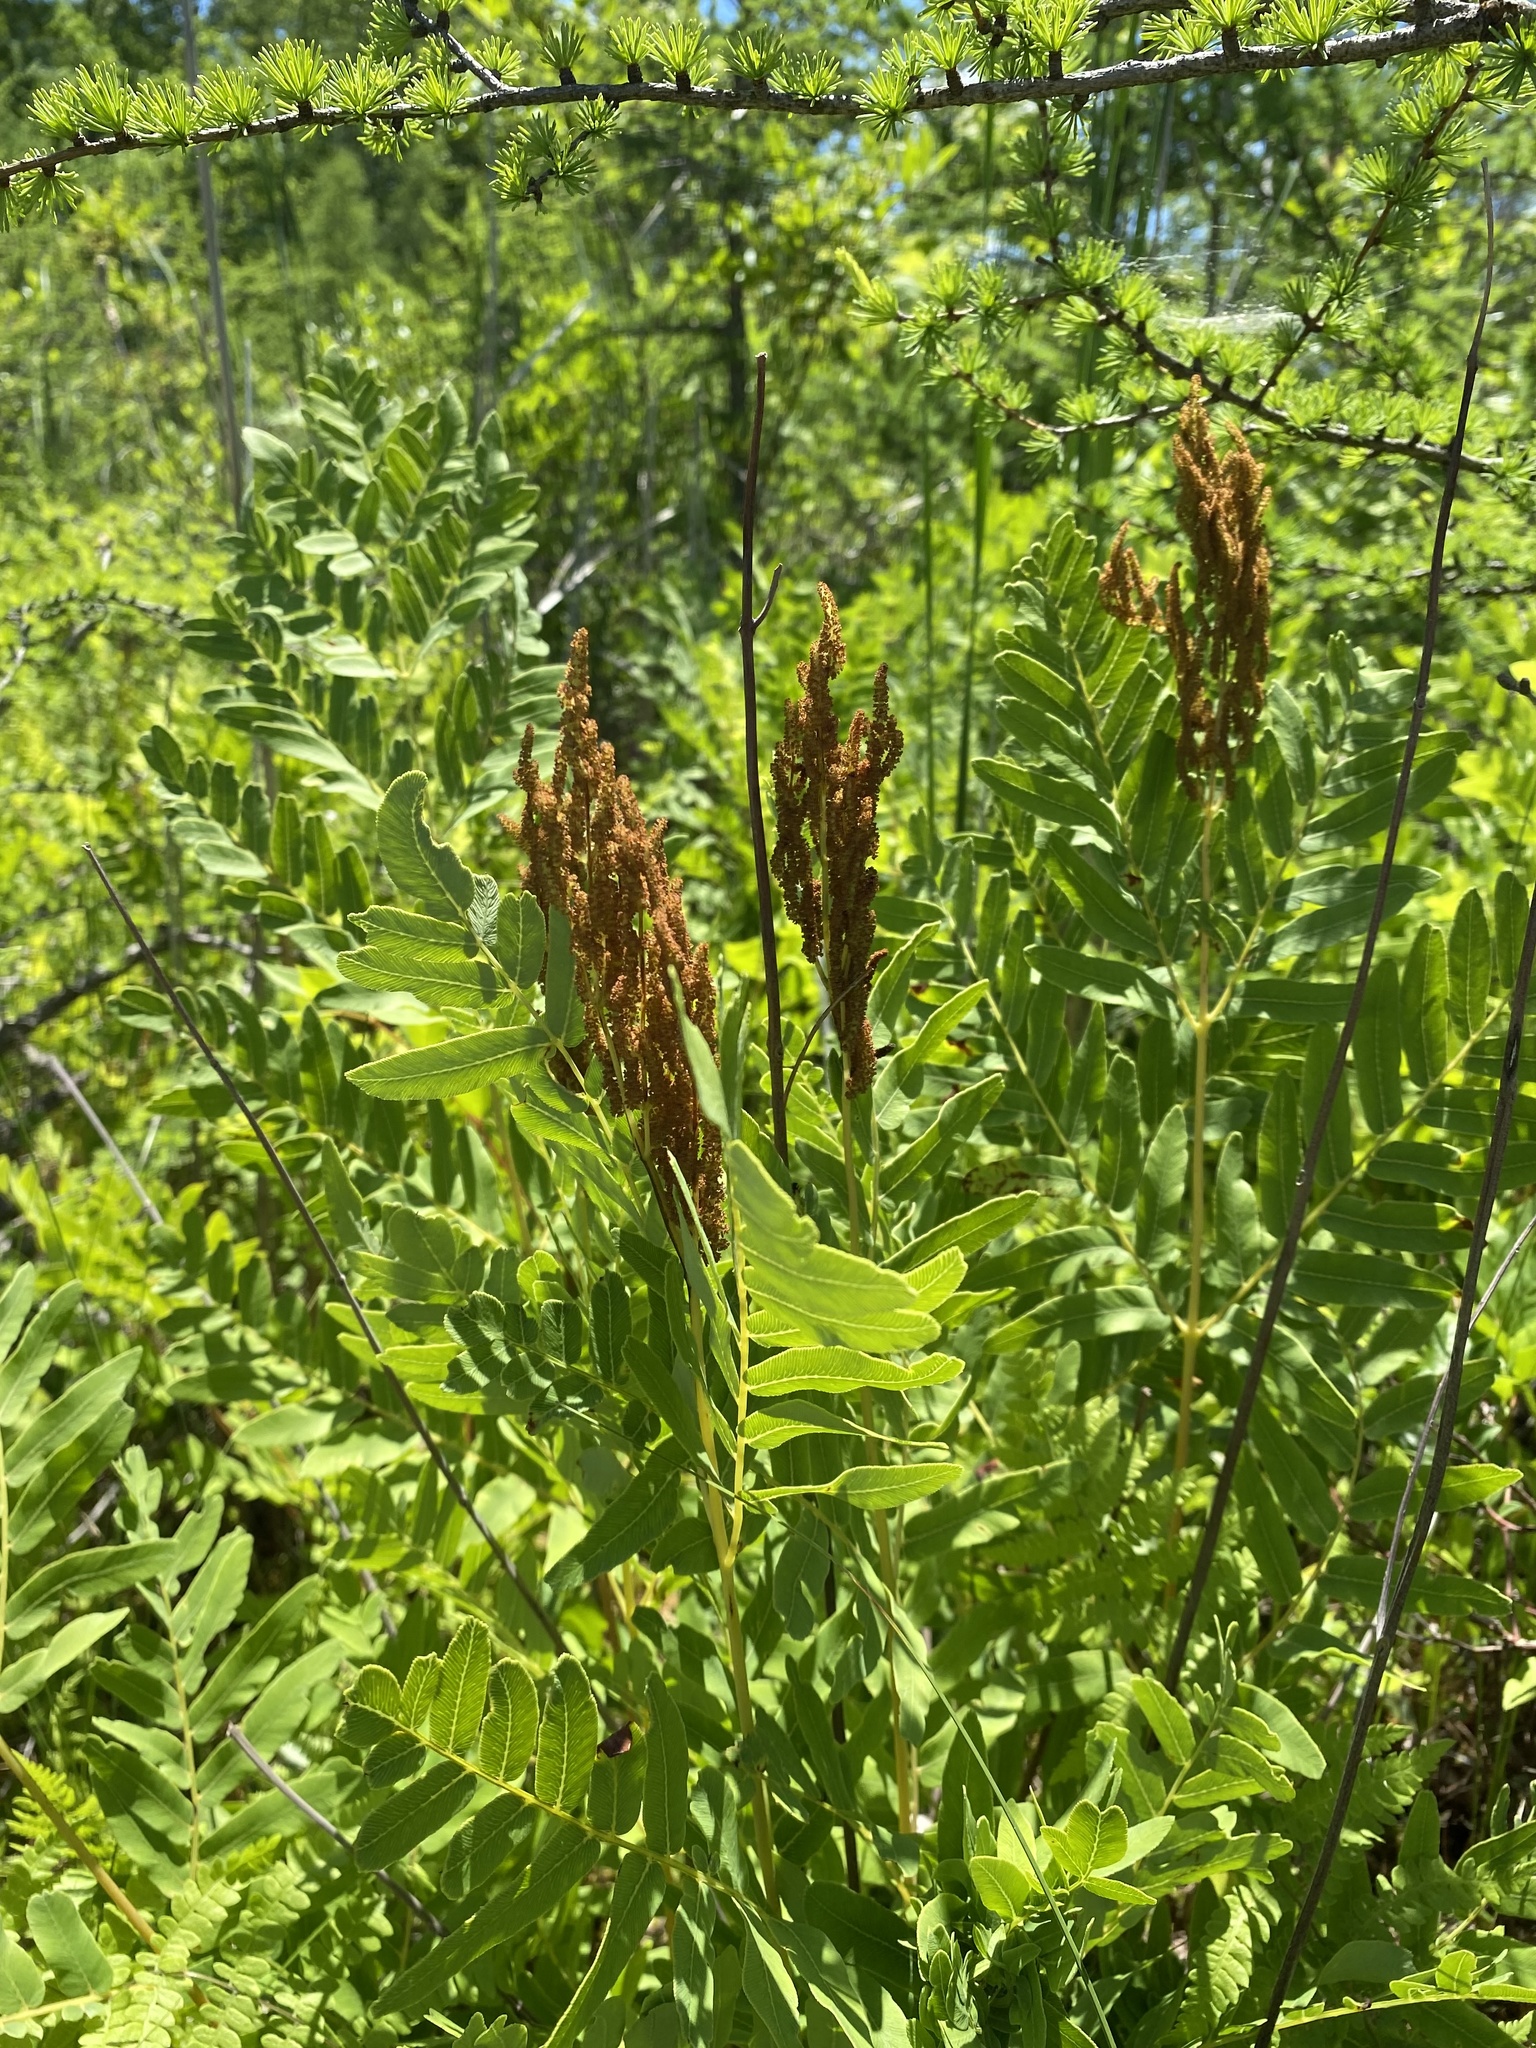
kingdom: Plantae
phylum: Tracheophyta
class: Polypodiopsida
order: Osmundales
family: Osmundaceae
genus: Osmunda
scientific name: Osmunda spectabilis
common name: American royal fern
